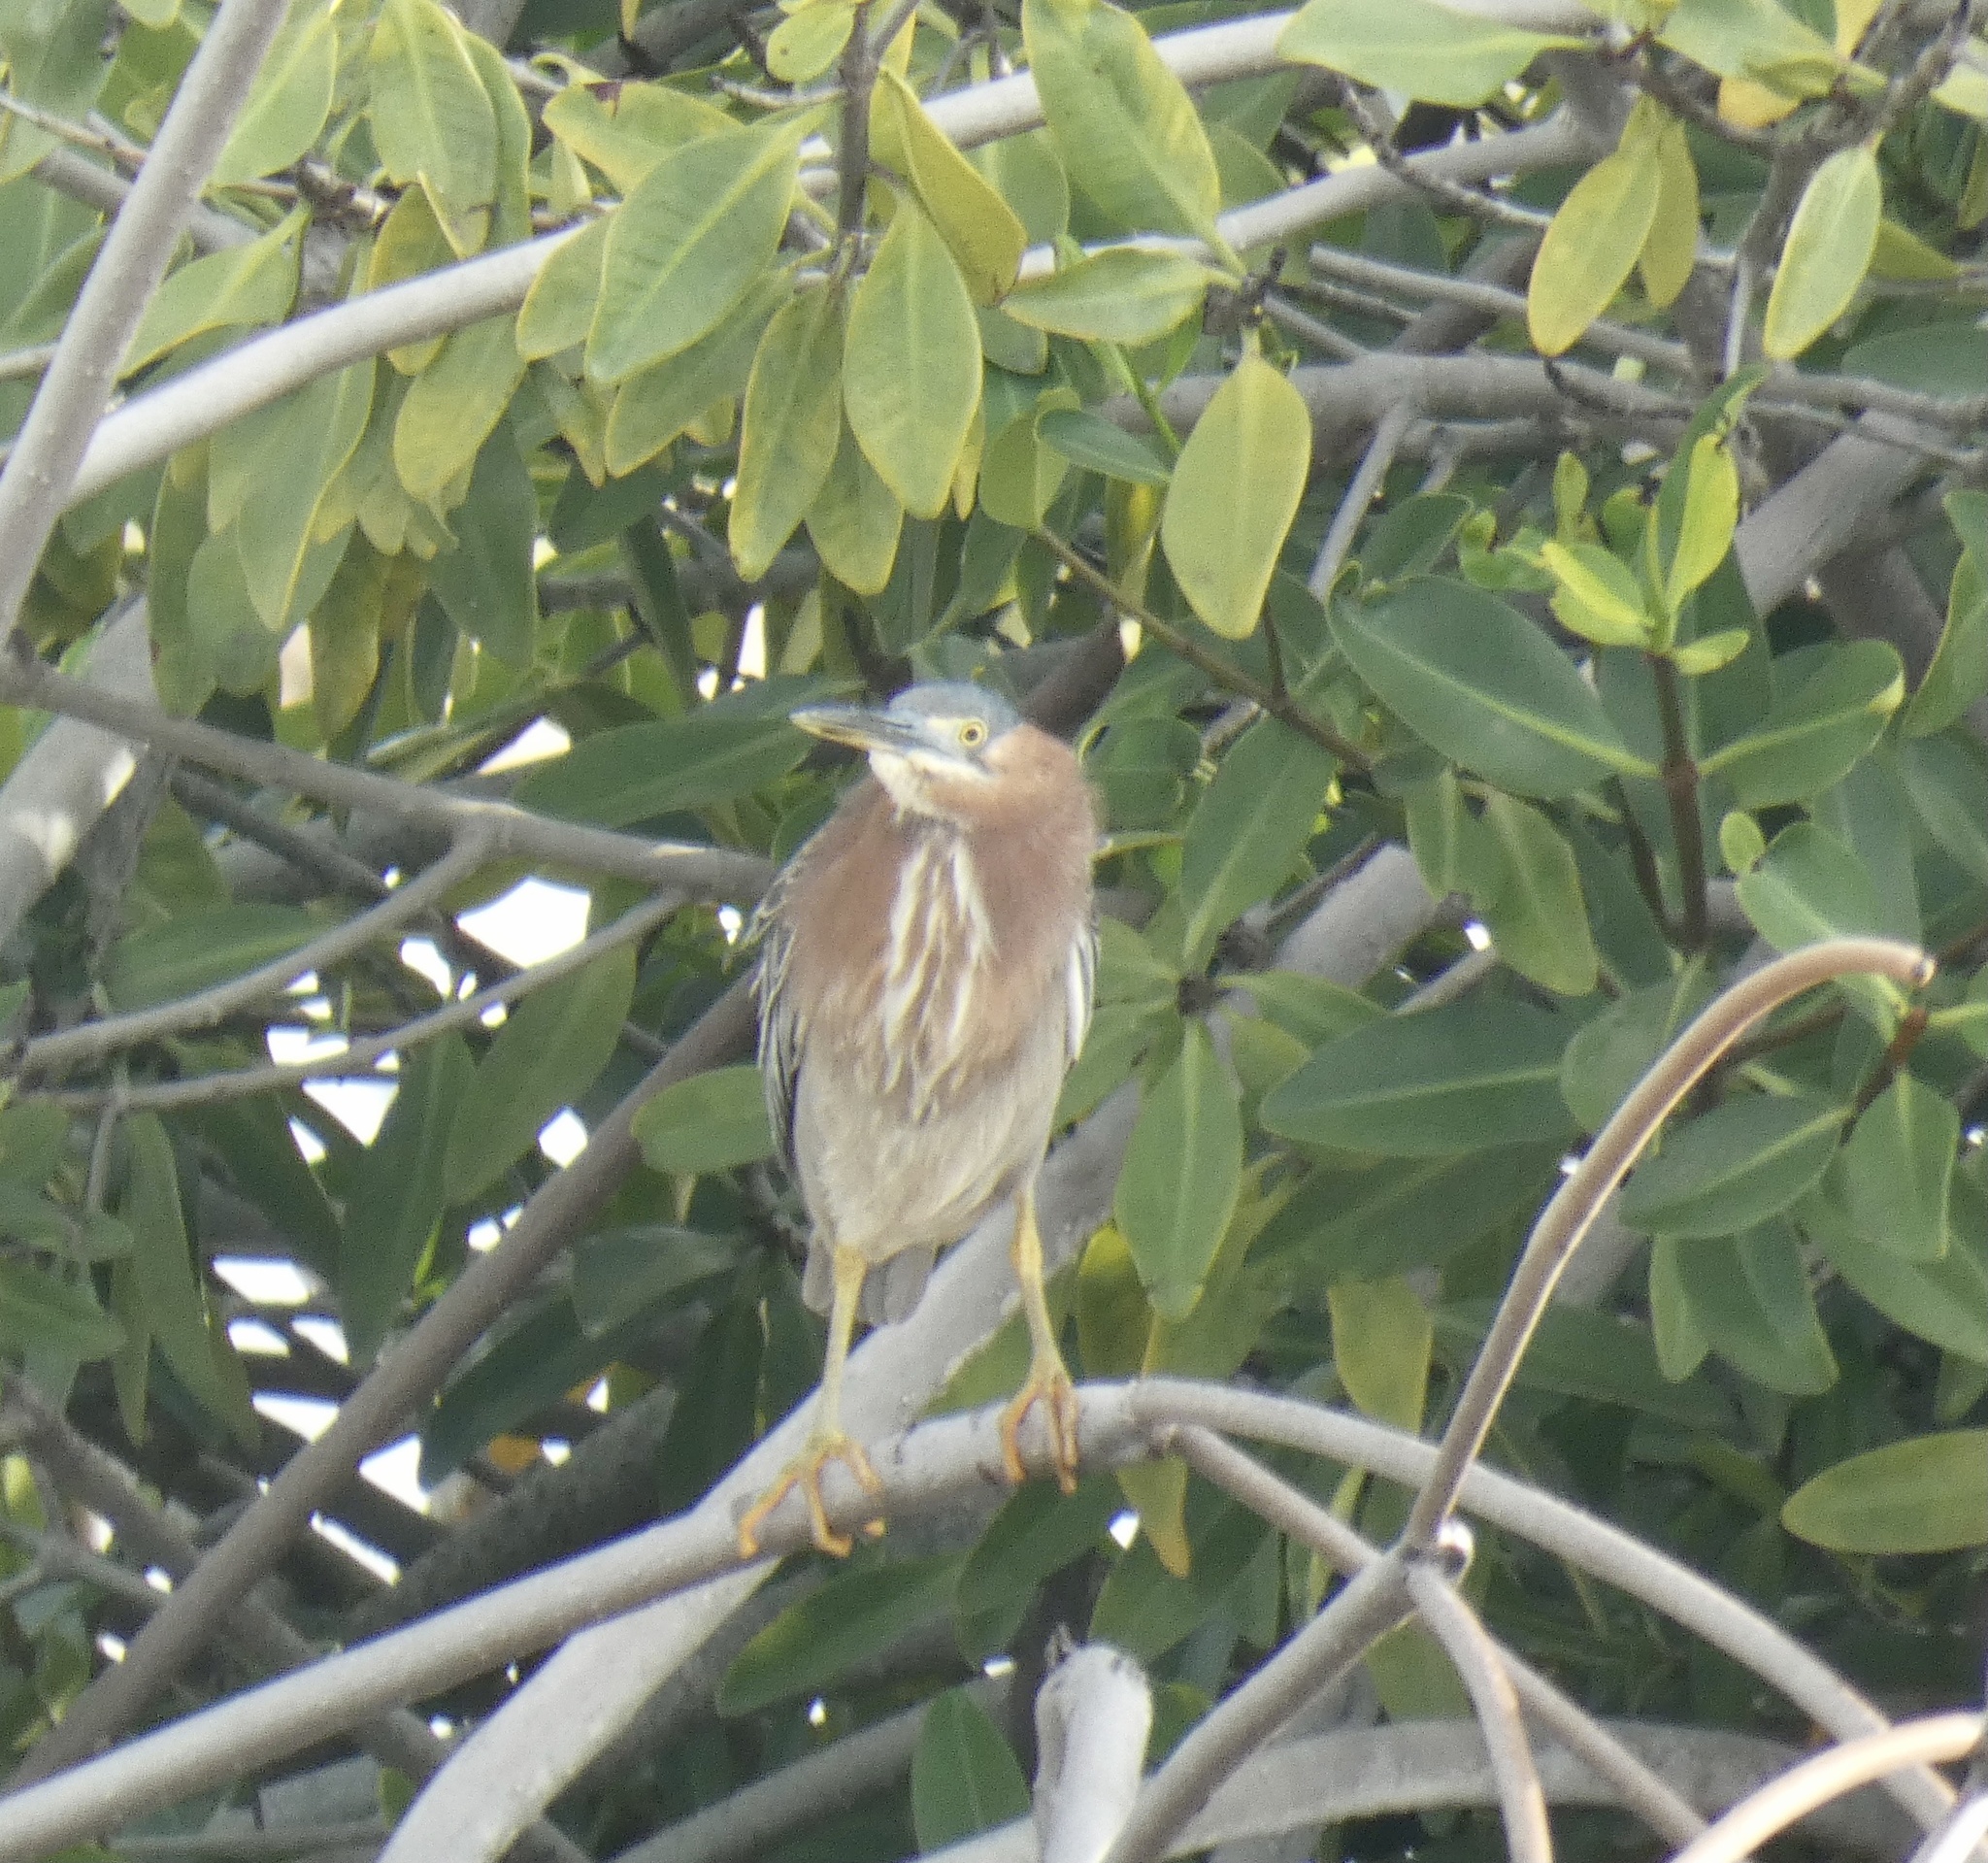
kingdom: Animalia
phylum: Chordata
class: Aves
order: Pelecaniformes
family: Ardeidae
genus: Butorides
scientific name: Butorides virescens
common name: Green heron
